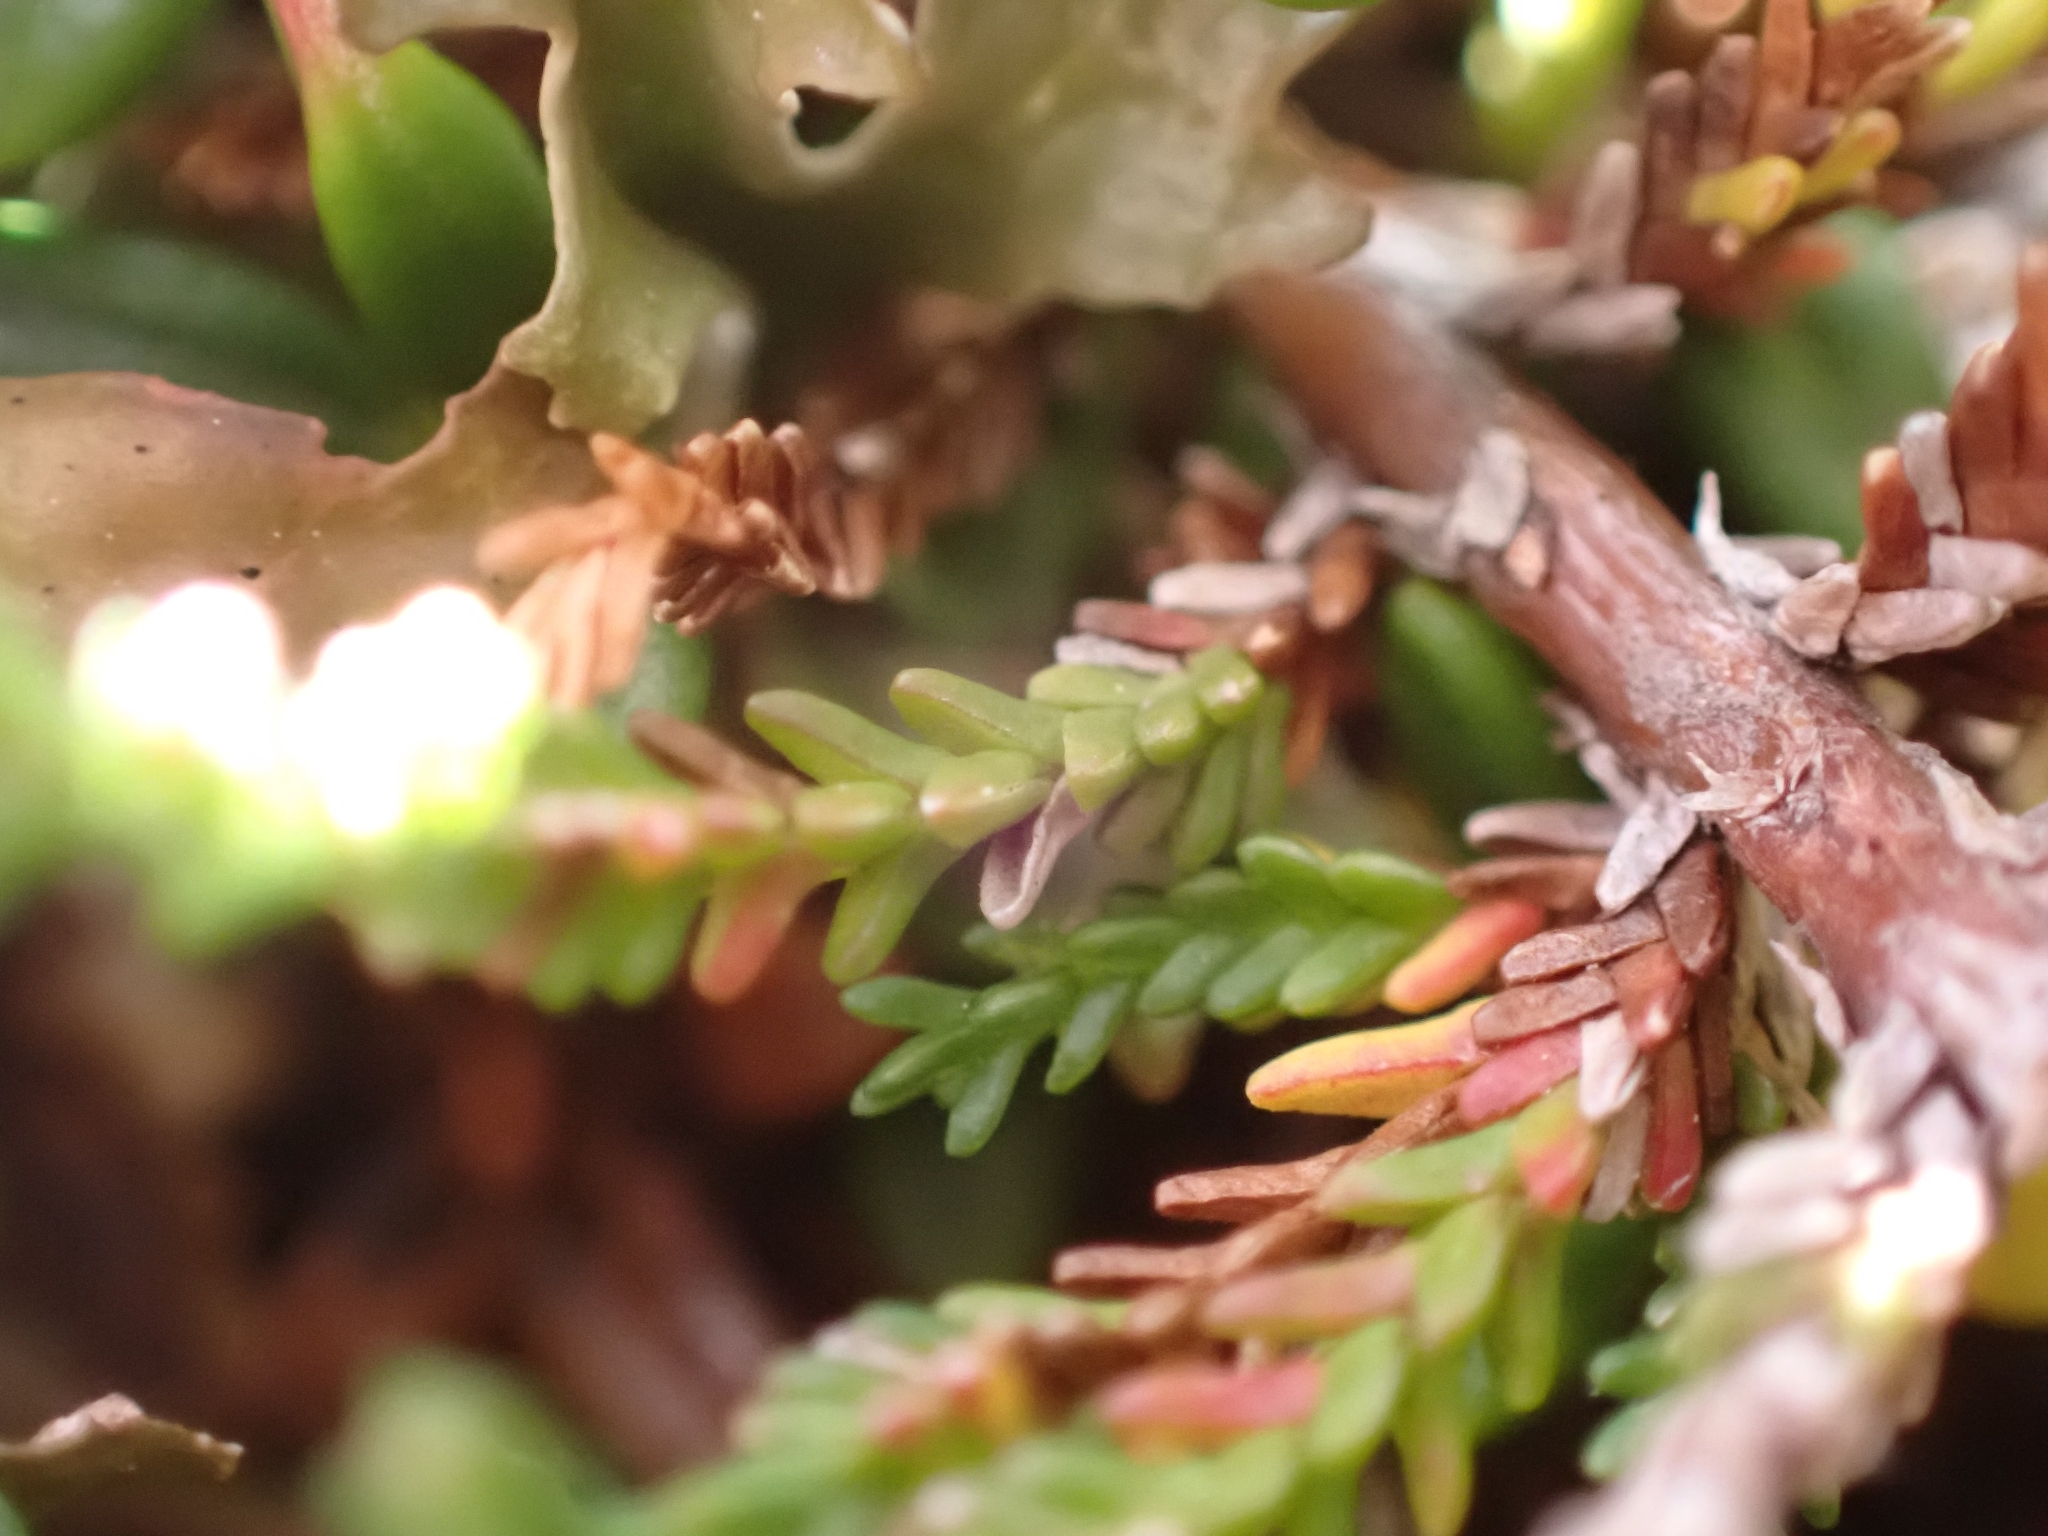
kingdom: Plantae
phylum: Tracheophyta
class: Magnoliopsida
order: Ericales
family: Ericaceae
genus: Calluna
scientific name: Calluna vulgaris
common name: Heather
